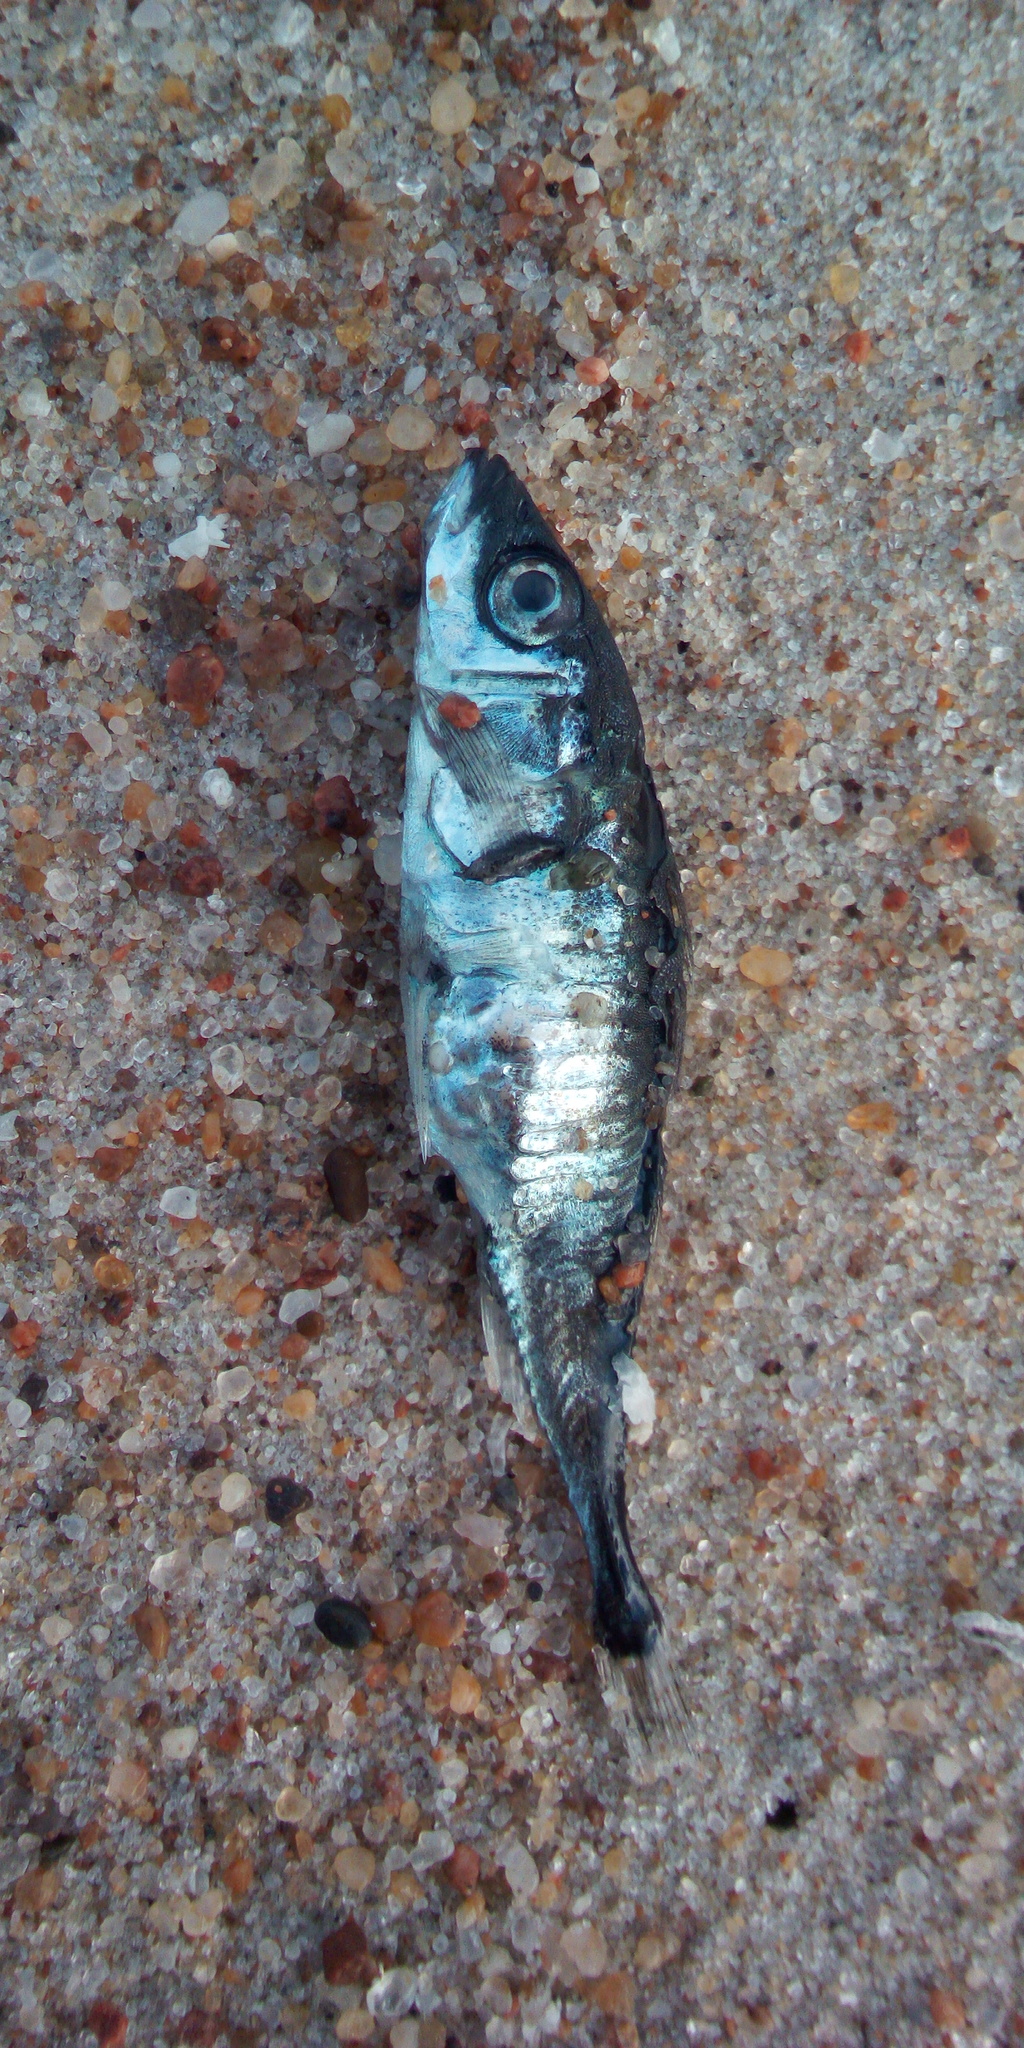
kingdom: Animalia
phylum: Chordata
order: Gasterosteiformes
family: Gasterosteidae
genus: Gasterosteus
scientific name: Gasterosteus aculeatus
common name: Three-spined stickleback
